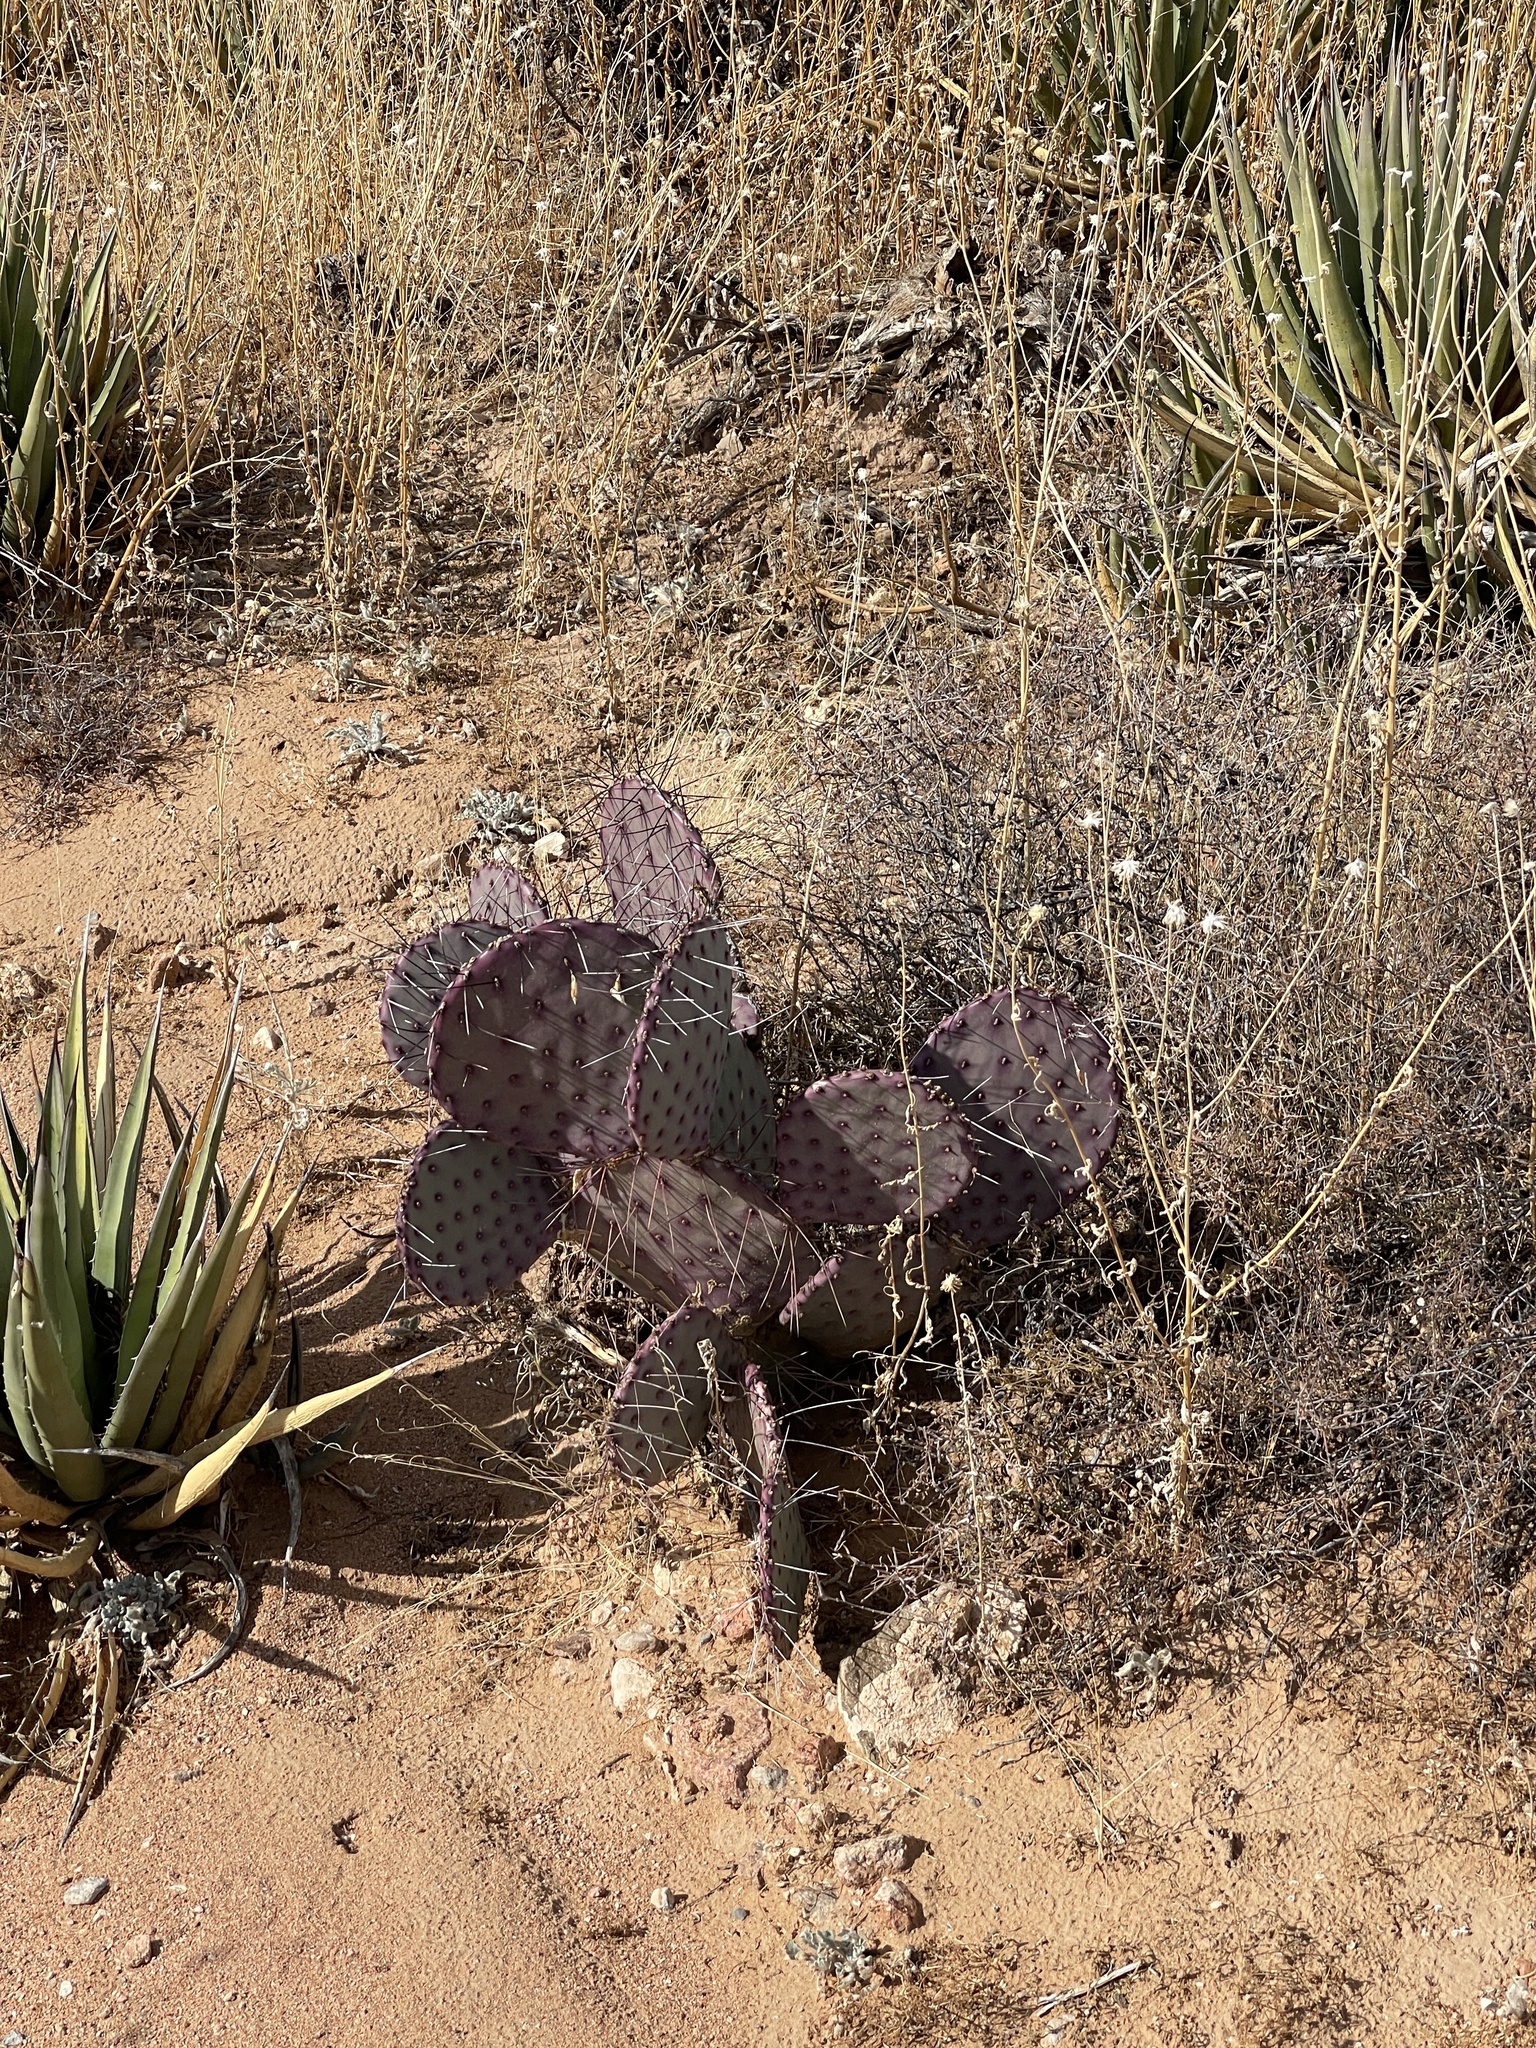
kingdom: Plantae
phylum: Tracheophyta
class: Magnoliopsida
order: Caryophyllales
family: Cactaceae
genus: Opuntia
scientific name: Opuntia macrocentra
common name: Purple prickly-pear
